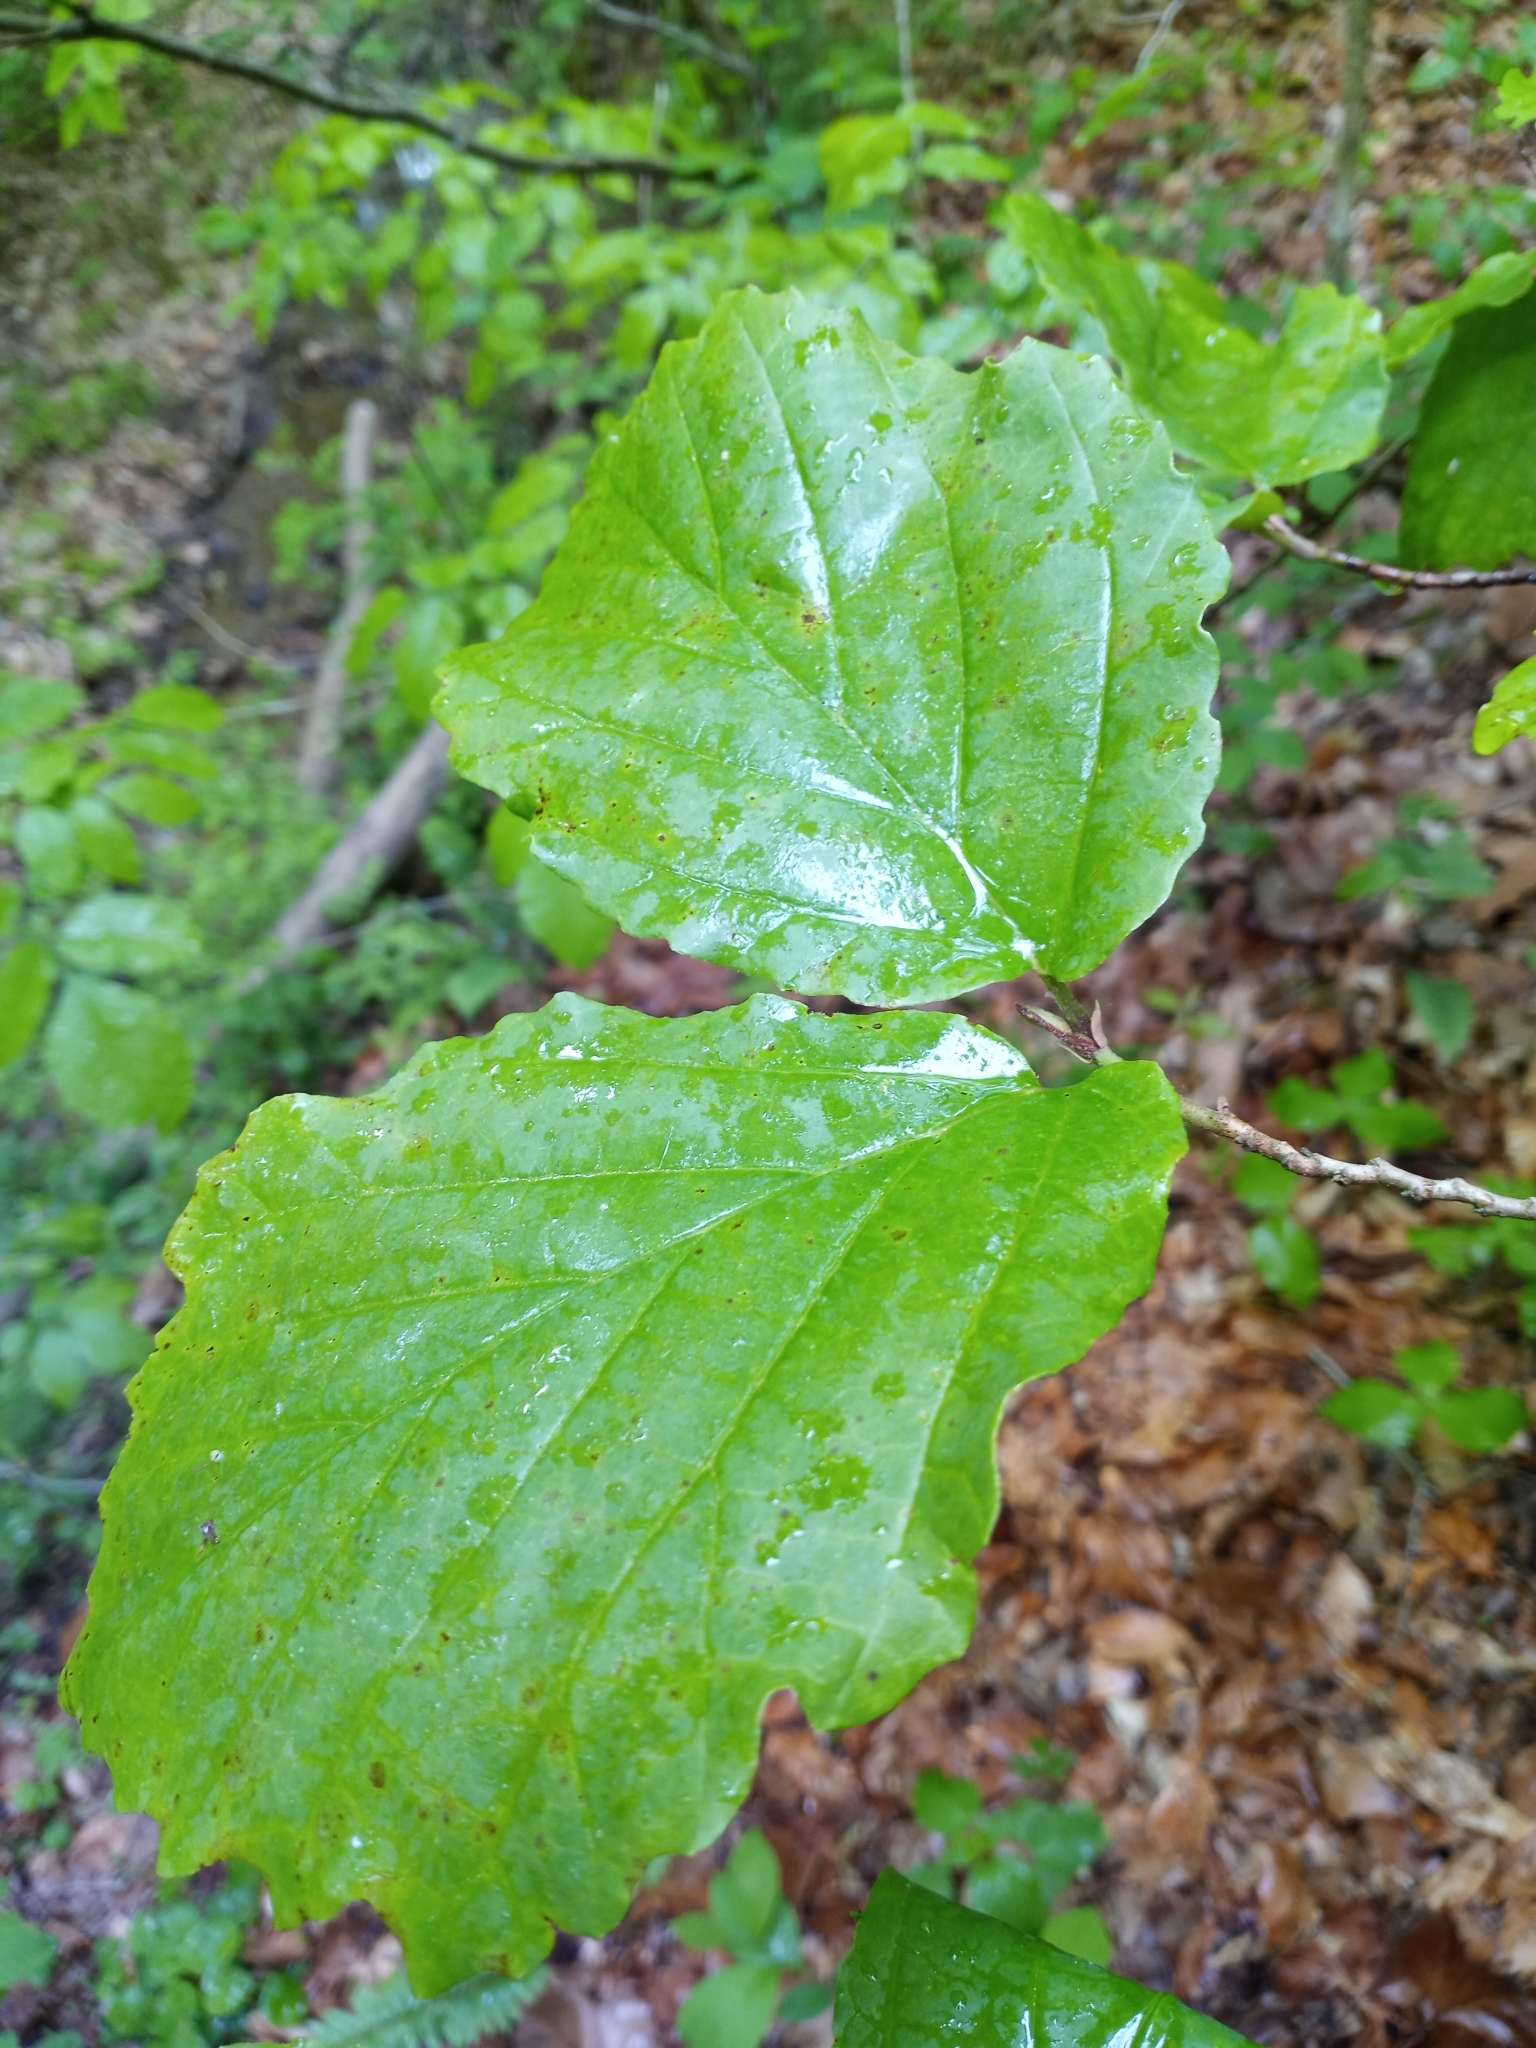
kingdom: Plantae
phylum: Tracheophyta
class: Magnoliopsida
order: Saxifragales
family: Hamamelidaceae
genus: Hamamelis
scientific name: Hamamelis virginiana
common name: Witch-hazel
